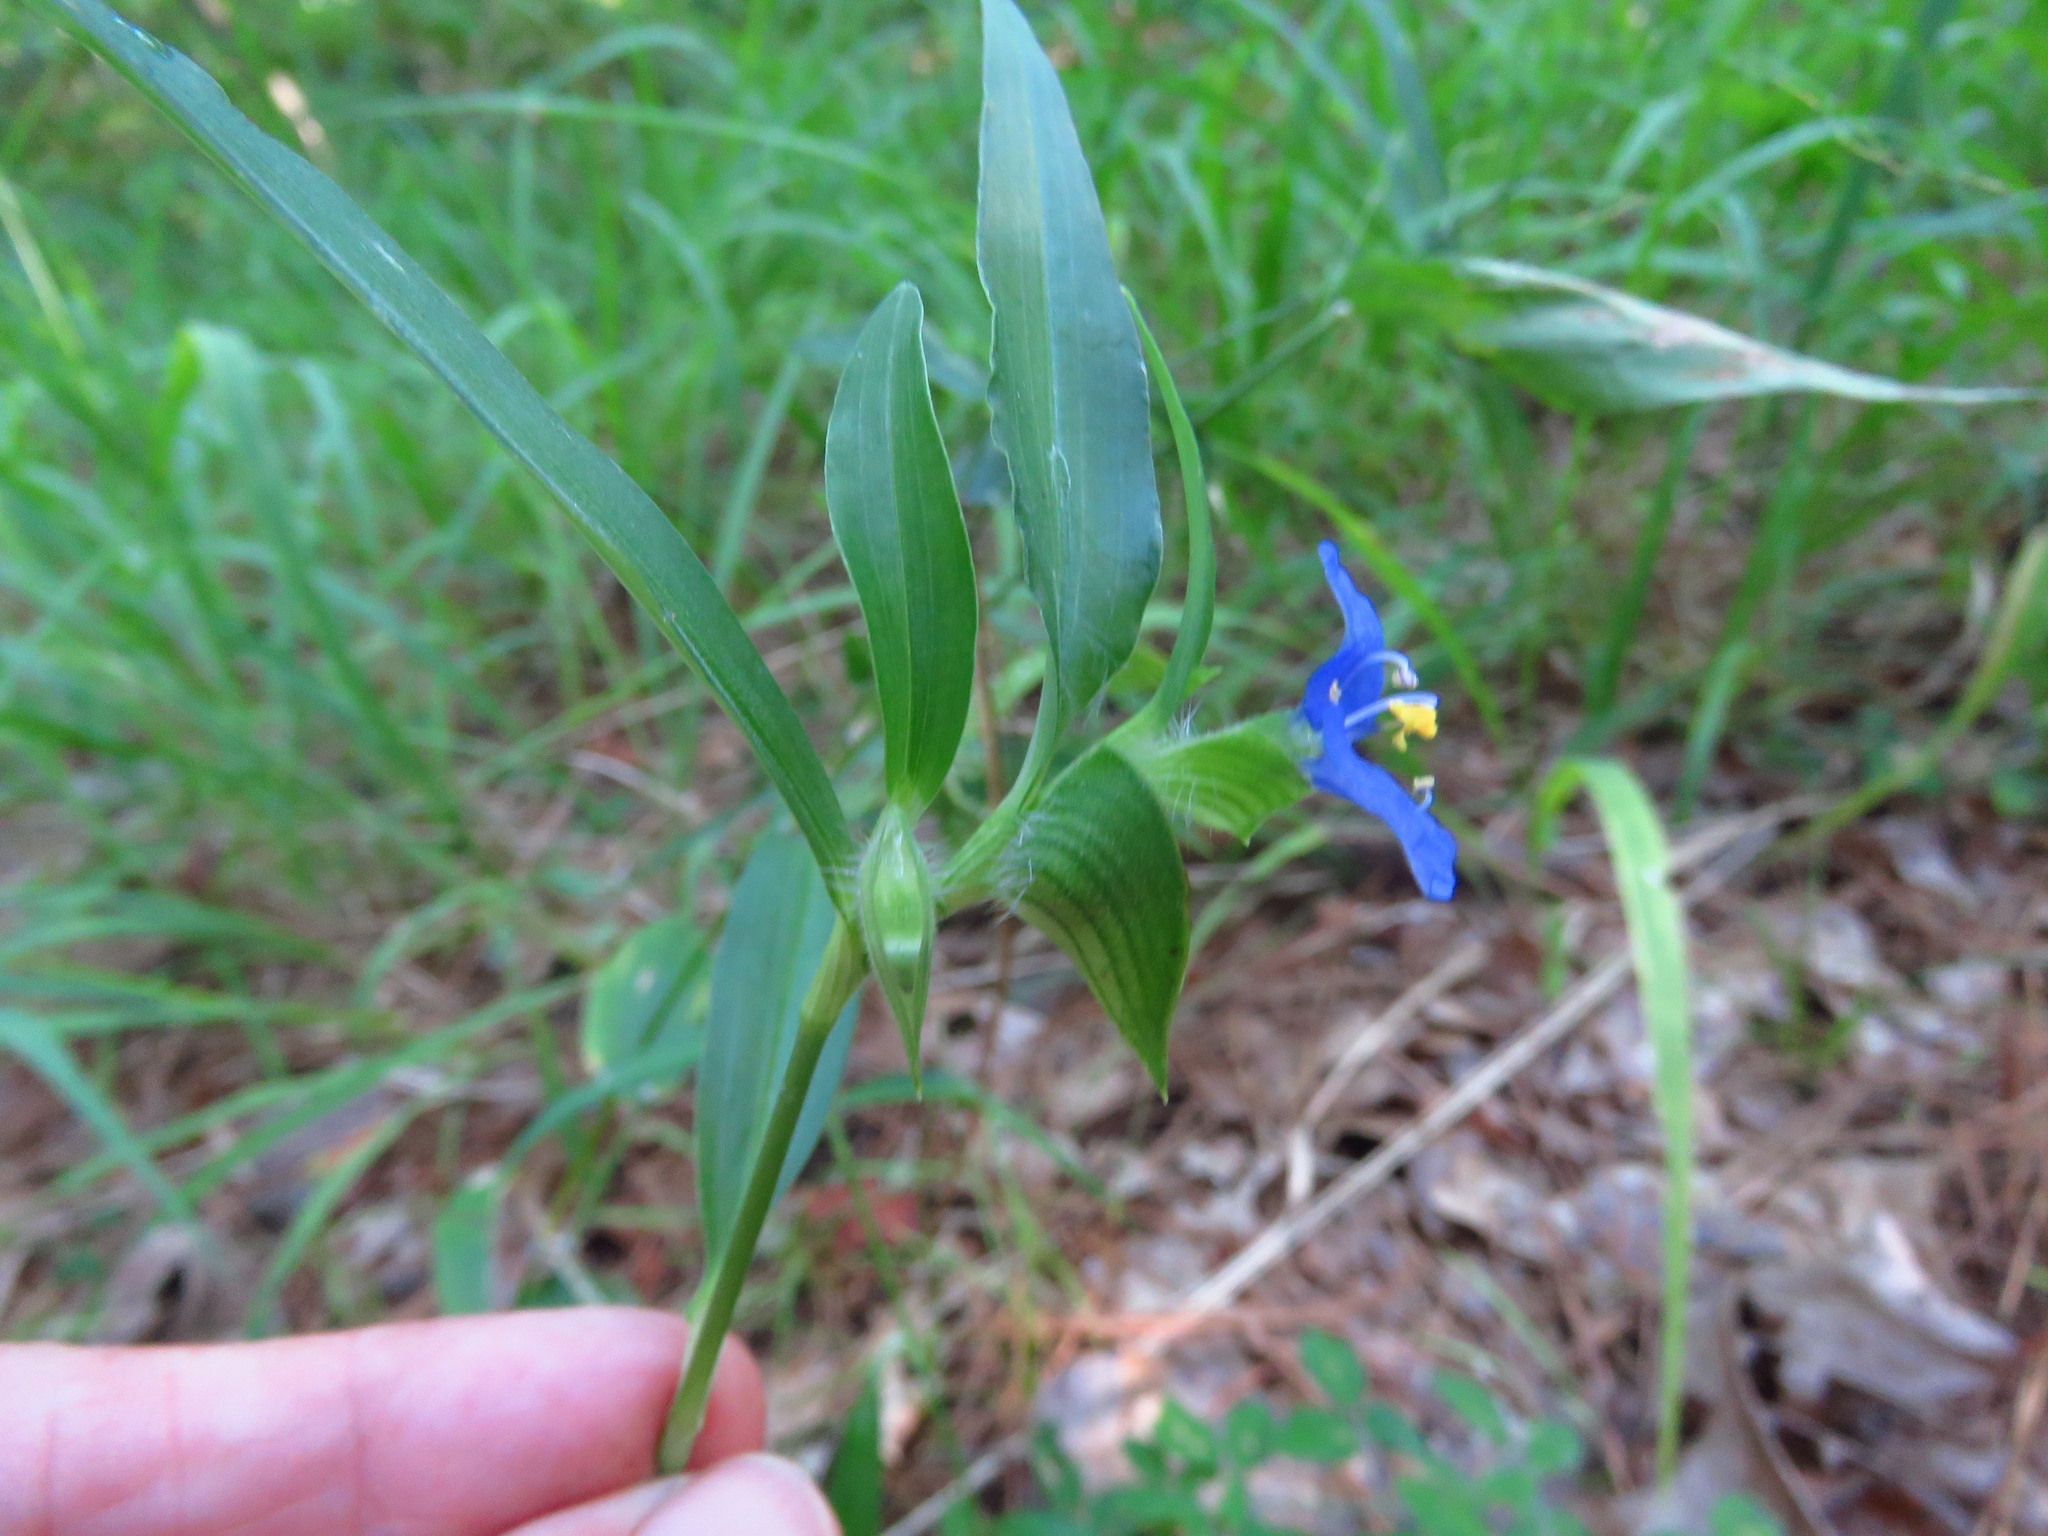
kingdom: Plantae
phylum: Tracheophyta
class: Liliopsida
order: Commelinales
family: Commelinaceae
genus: Commelina
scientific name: Commelina erecta
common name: Blousel blommetjie
